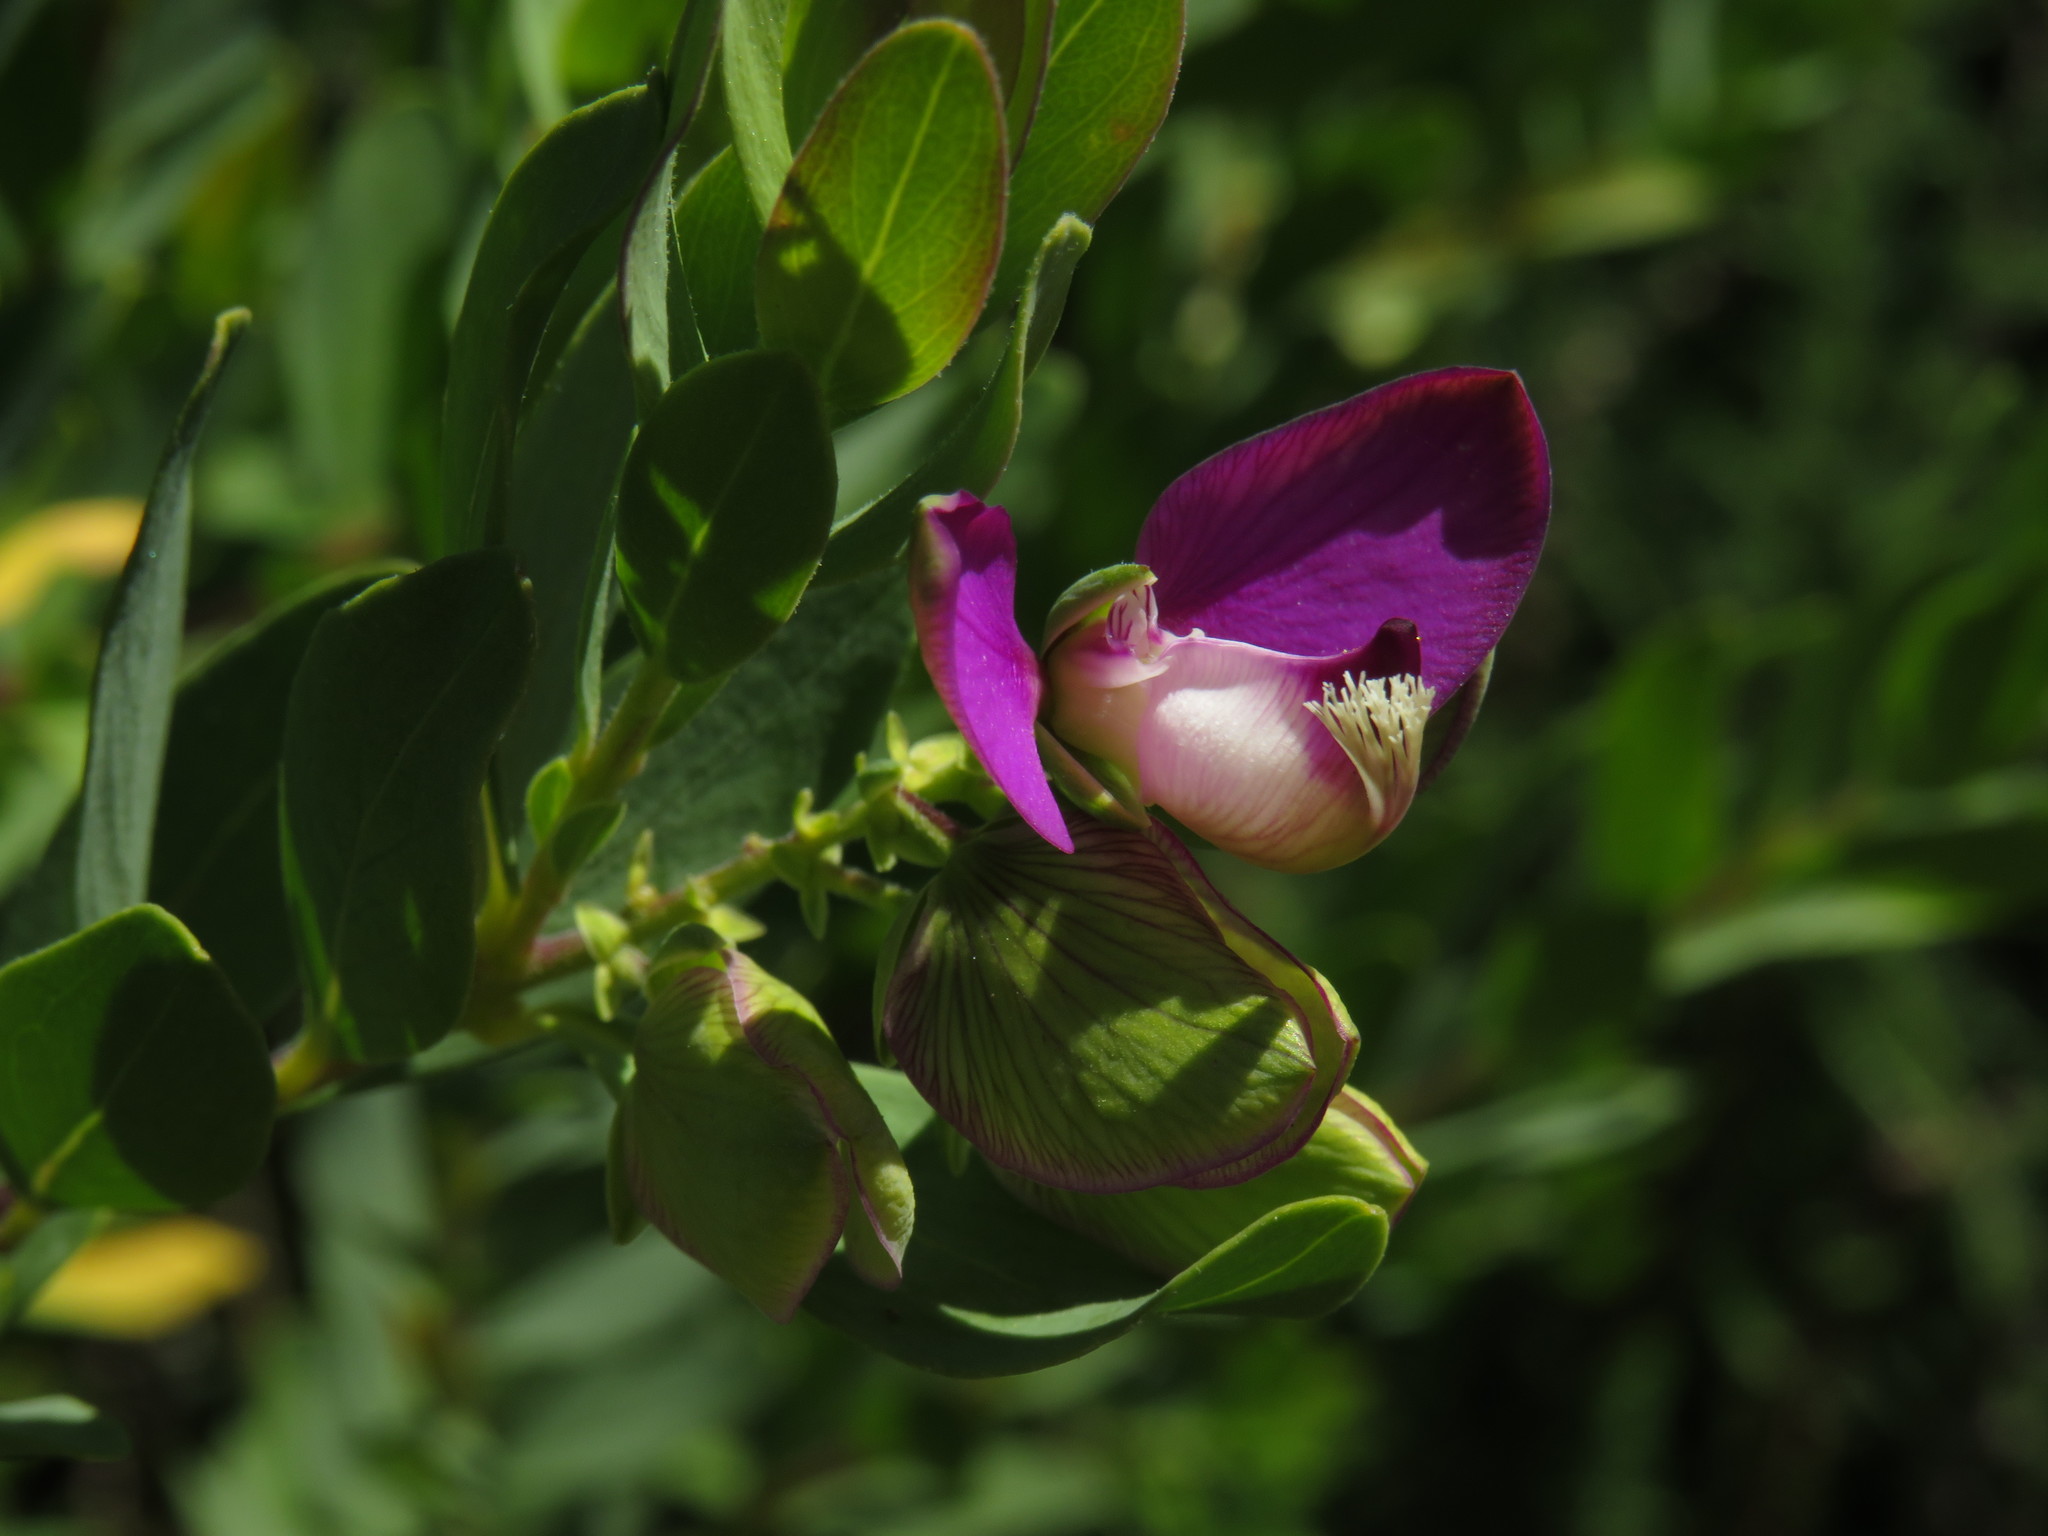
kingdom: Plantae
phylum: Tracheophyta
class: Magnoliopsida
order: Fabales
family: Polygalaceae
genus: Polygala
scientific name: Polygala myrtifolia
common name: Myrtle-leaf milkwort
